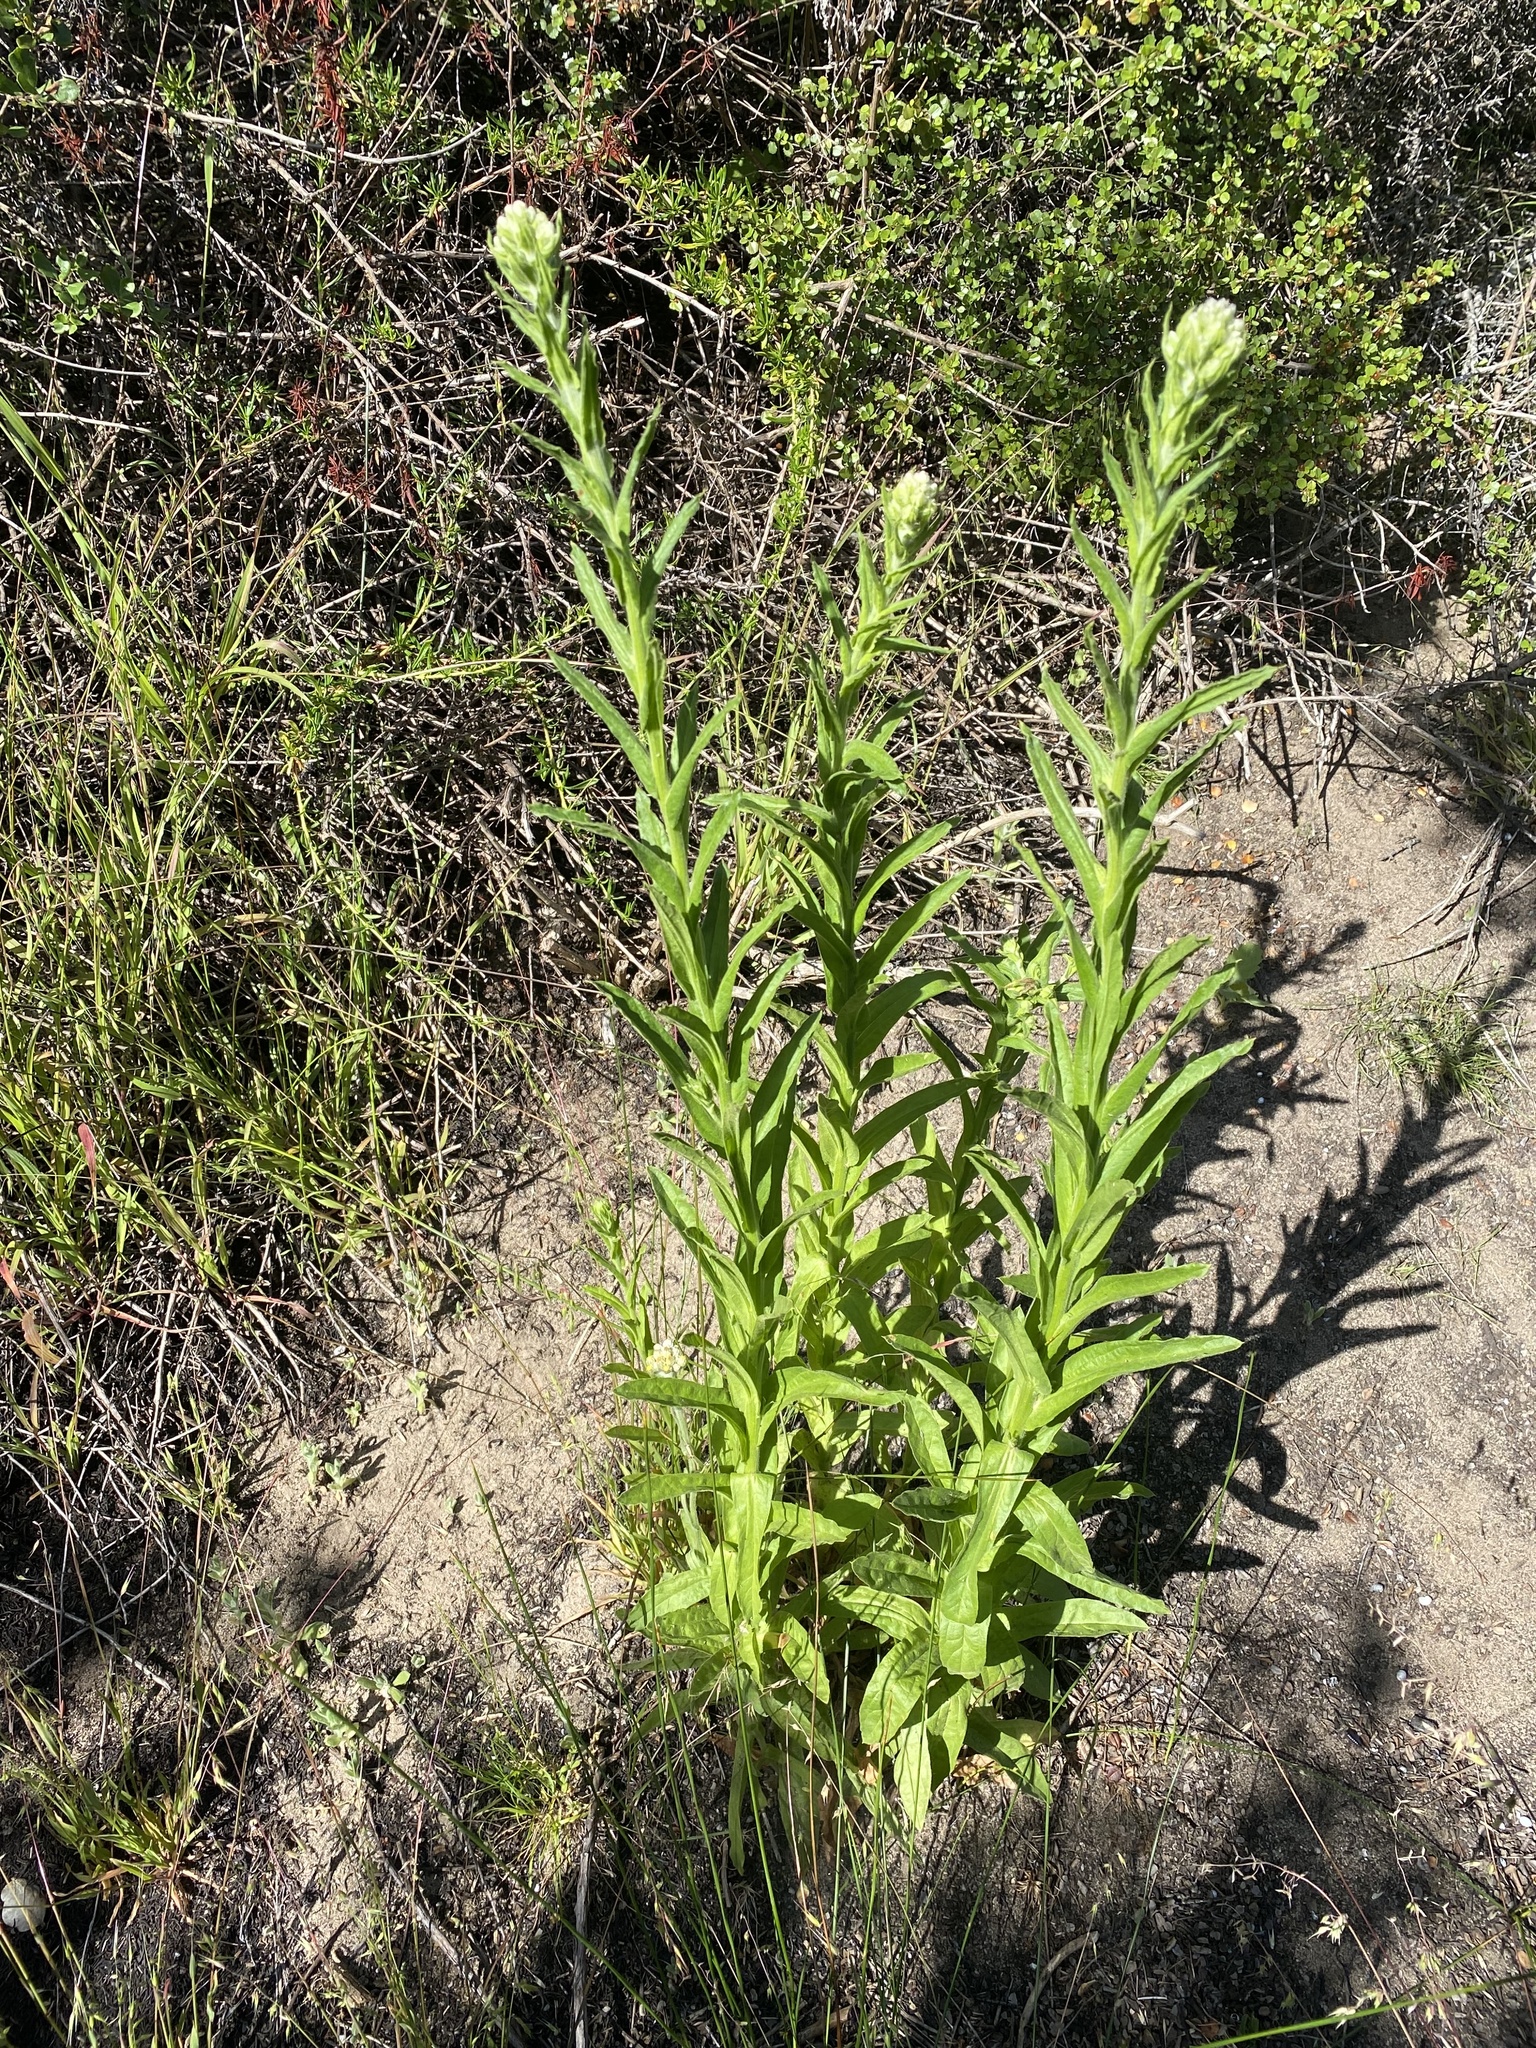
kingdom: Plantae
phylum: Tracheophyta
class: Magnoliopsida
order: Asterales
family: Asteraceae
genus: Pseudognaphalium
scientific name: Pseudognaphalium californicum
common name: California rabbit-tobacco
